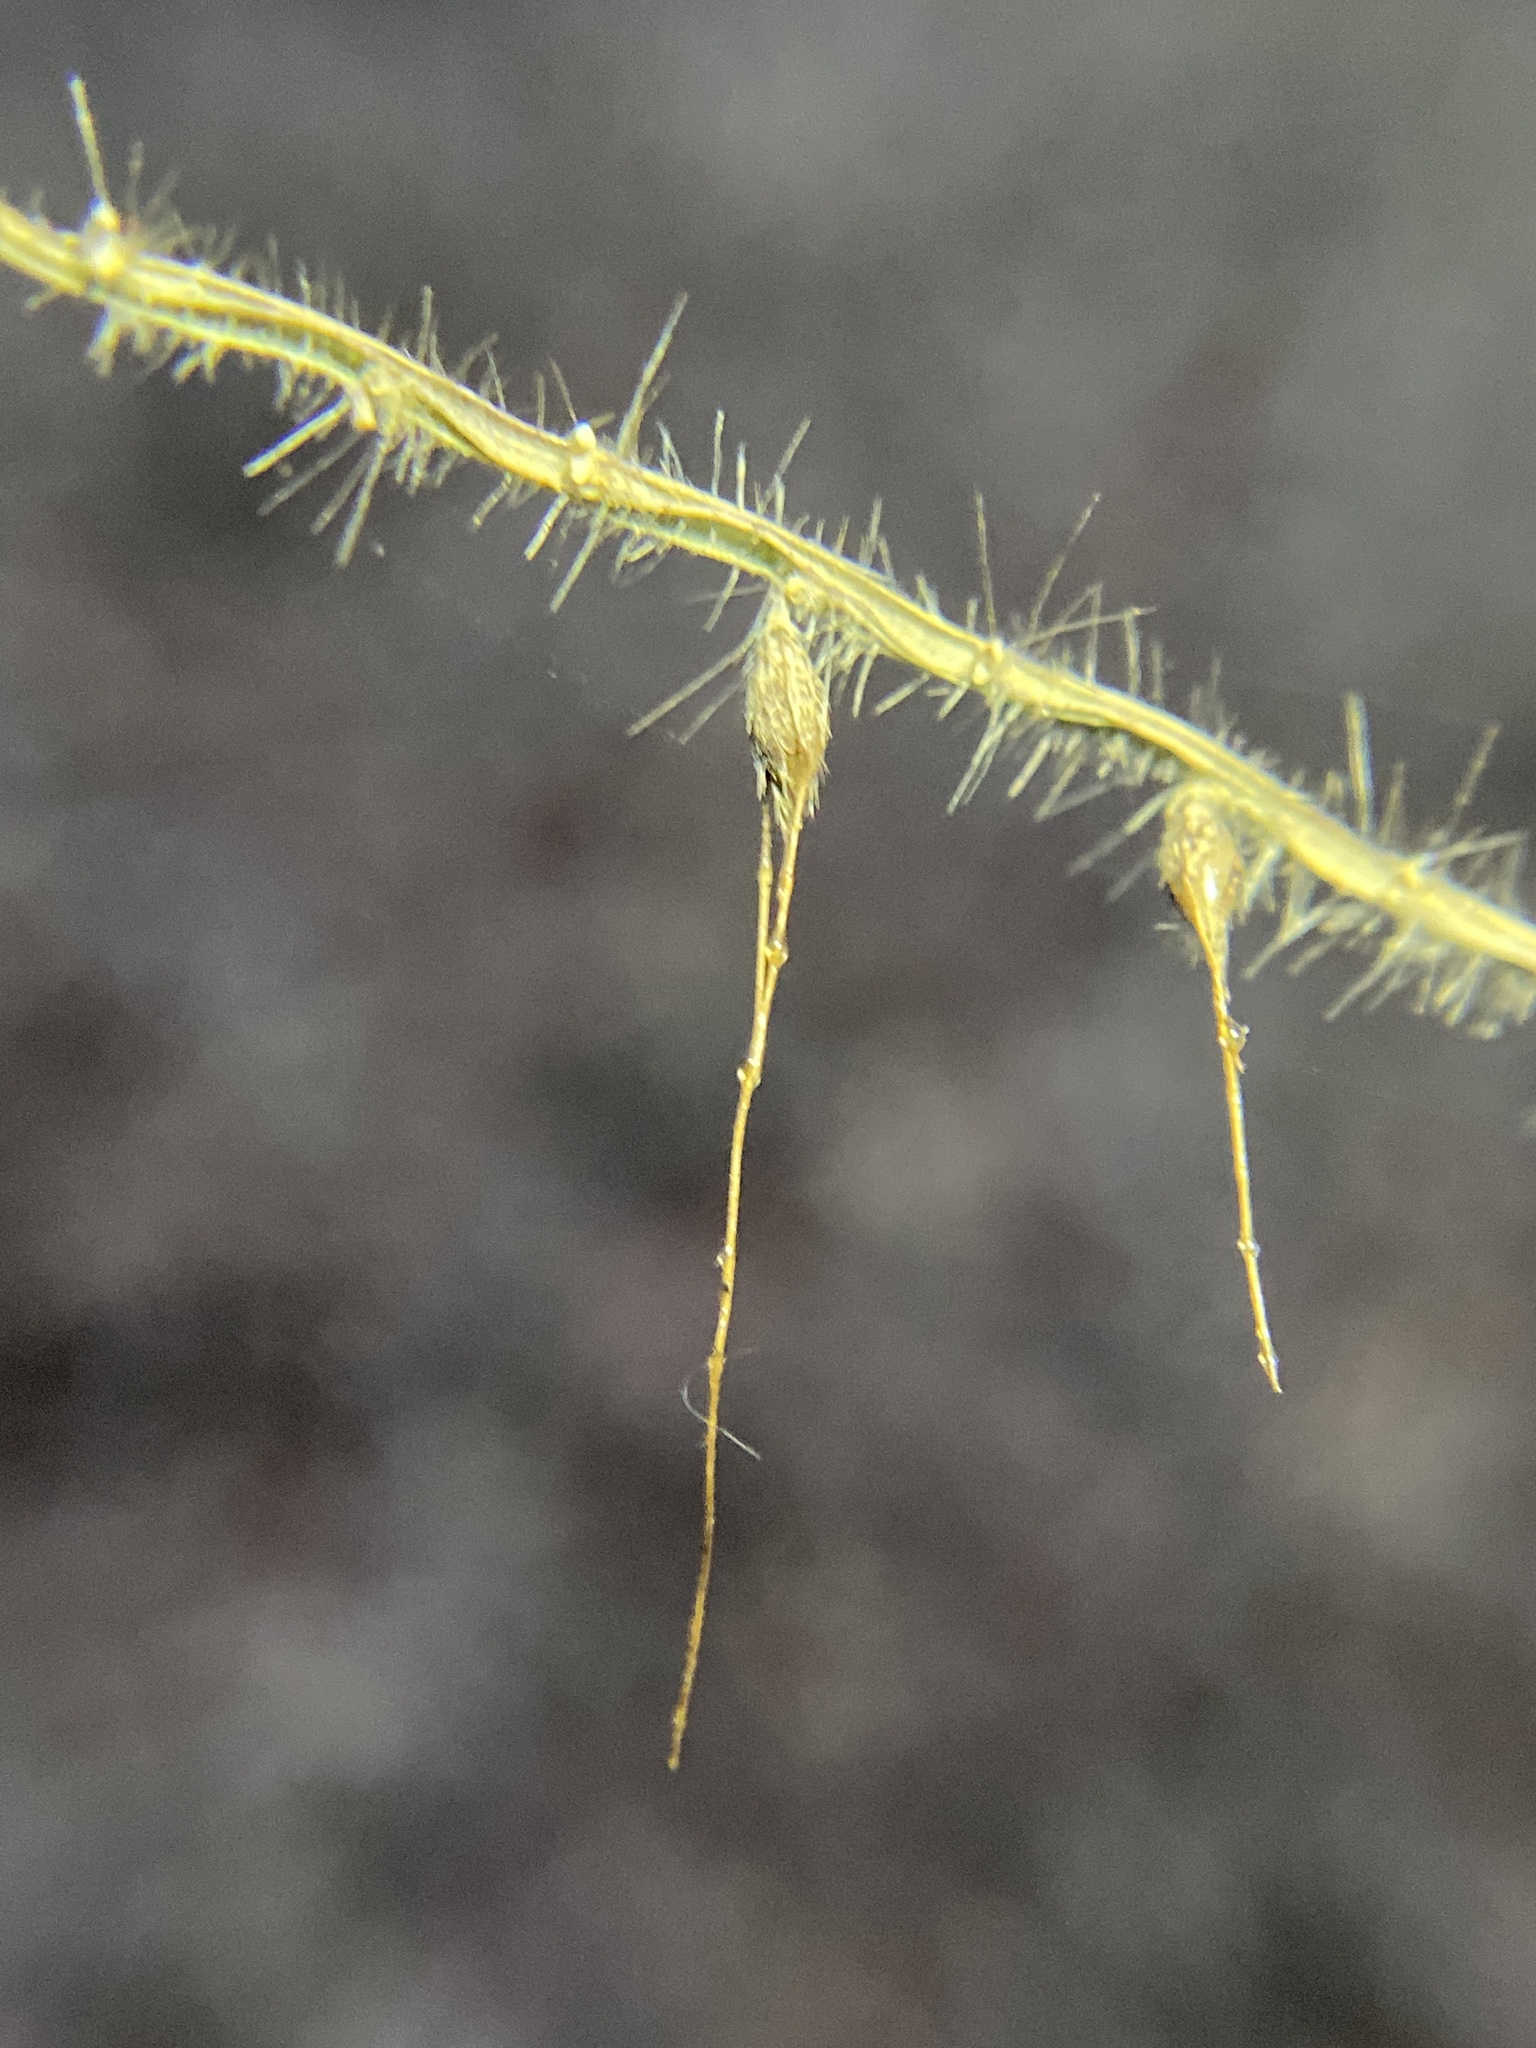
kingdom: Plantae
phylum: Tracheophyta
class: Liliopsida
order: Poales
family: Poaceae
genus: Oplismenus
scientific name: Oplismenus undulatifolius
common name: Wavyleaf basketgrass
